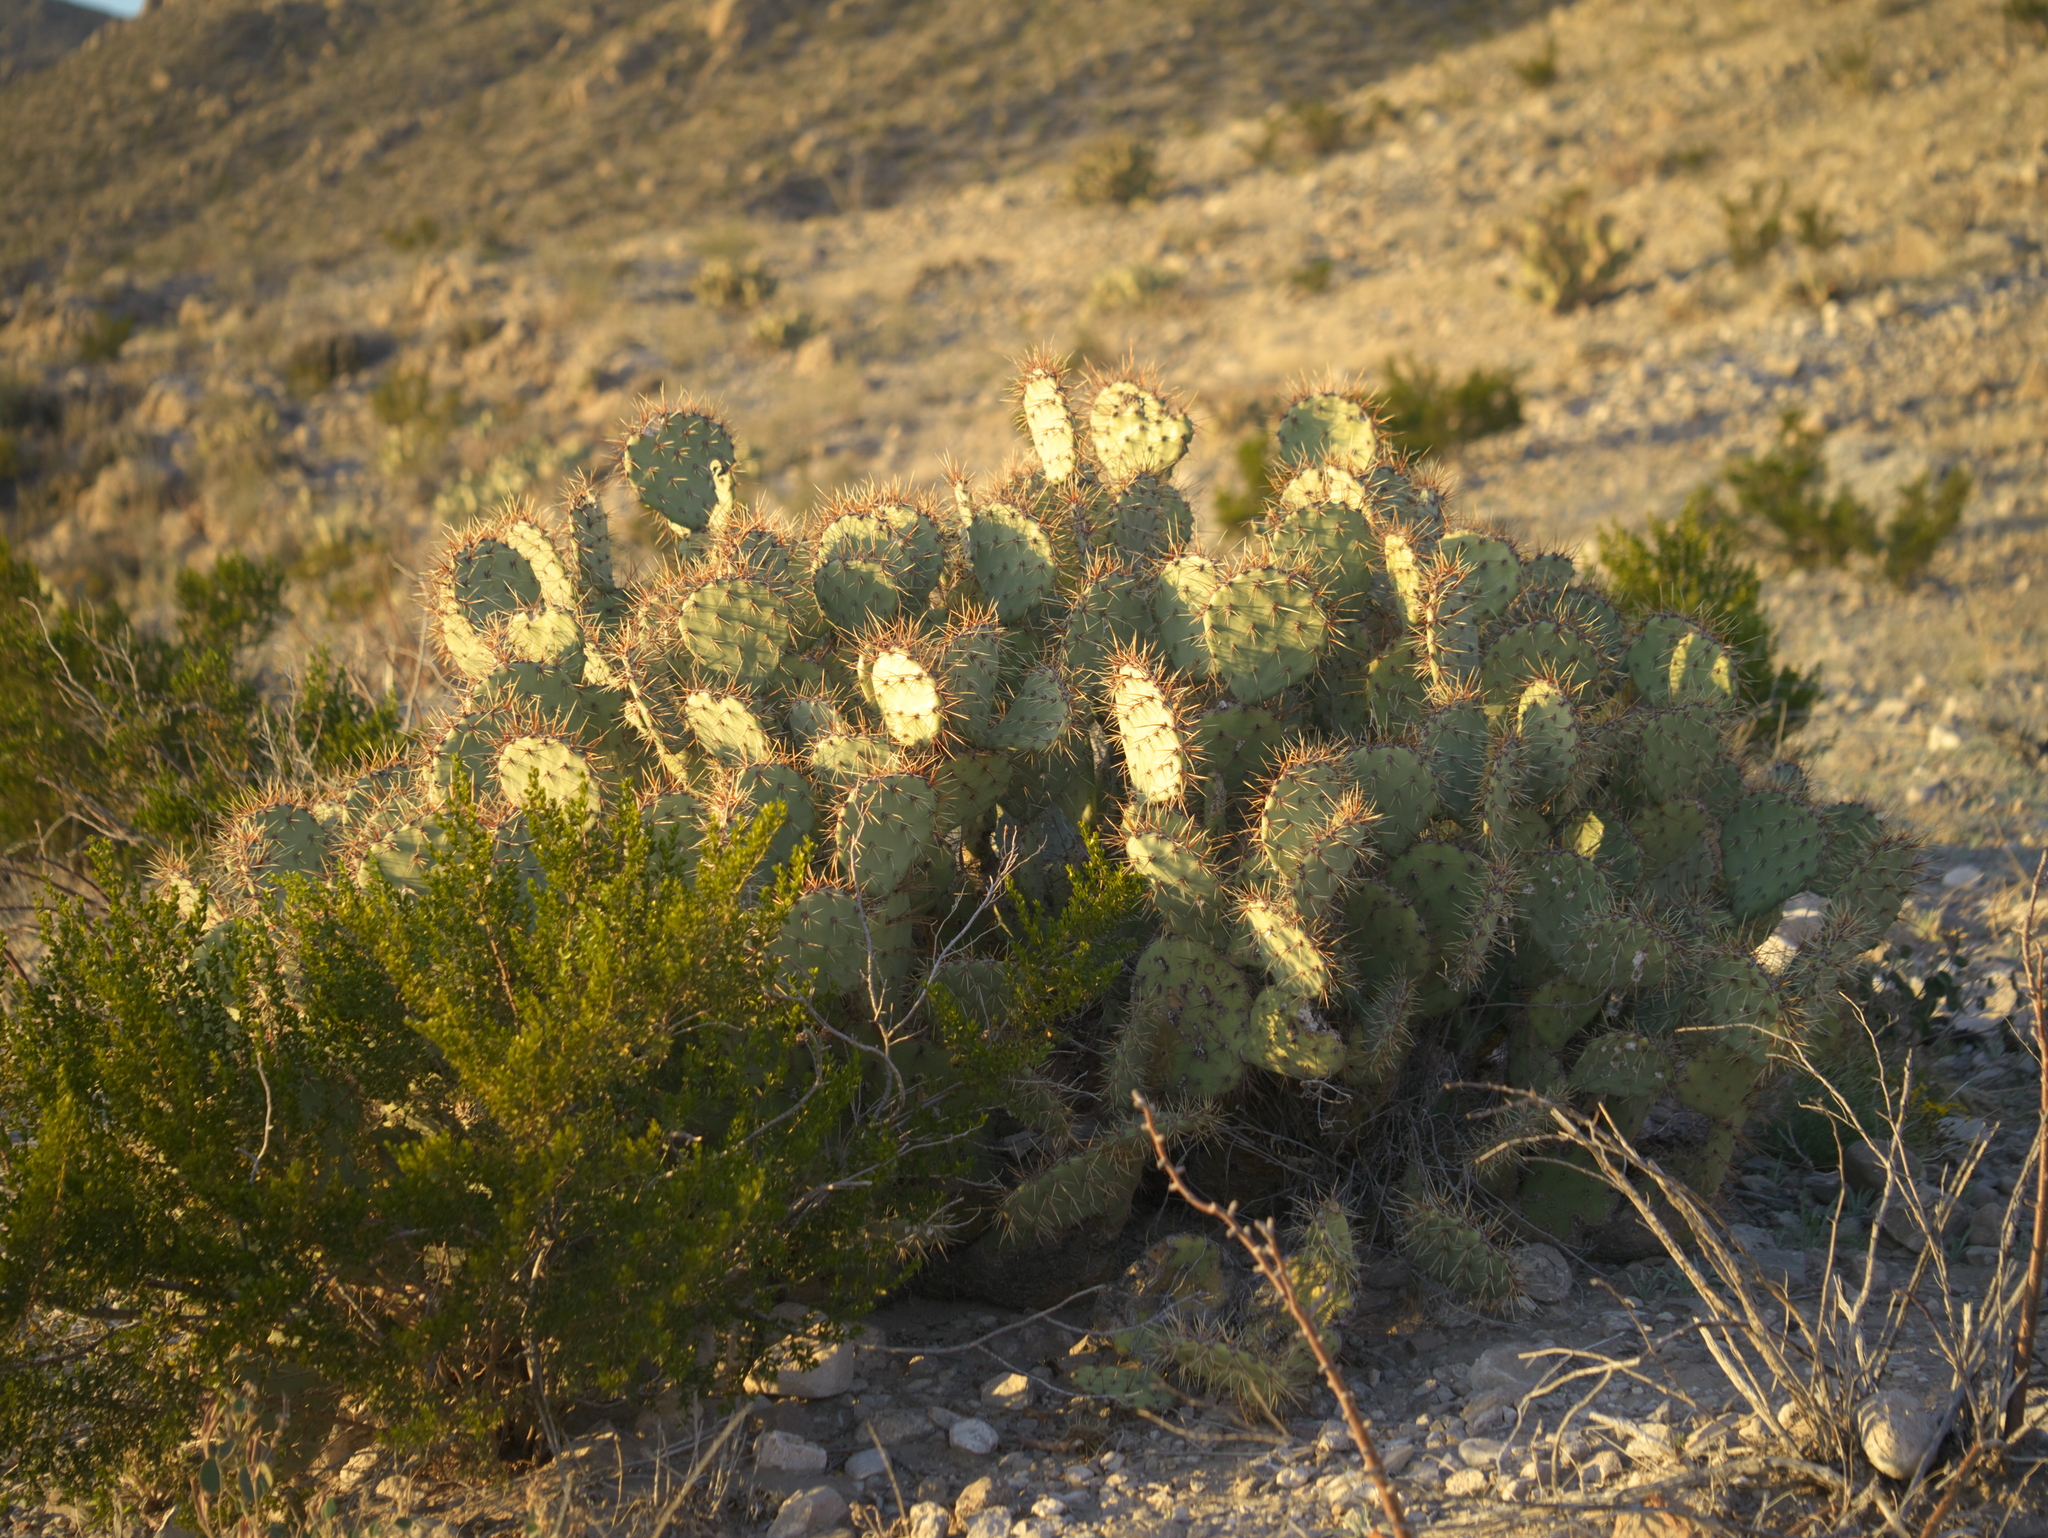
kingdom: Plantae
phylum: Tracheophyta
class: Magnoliopsida
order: Caryophyllales
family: Cactaceae
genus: Opuntia
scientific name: Opuntia spinosibacca
